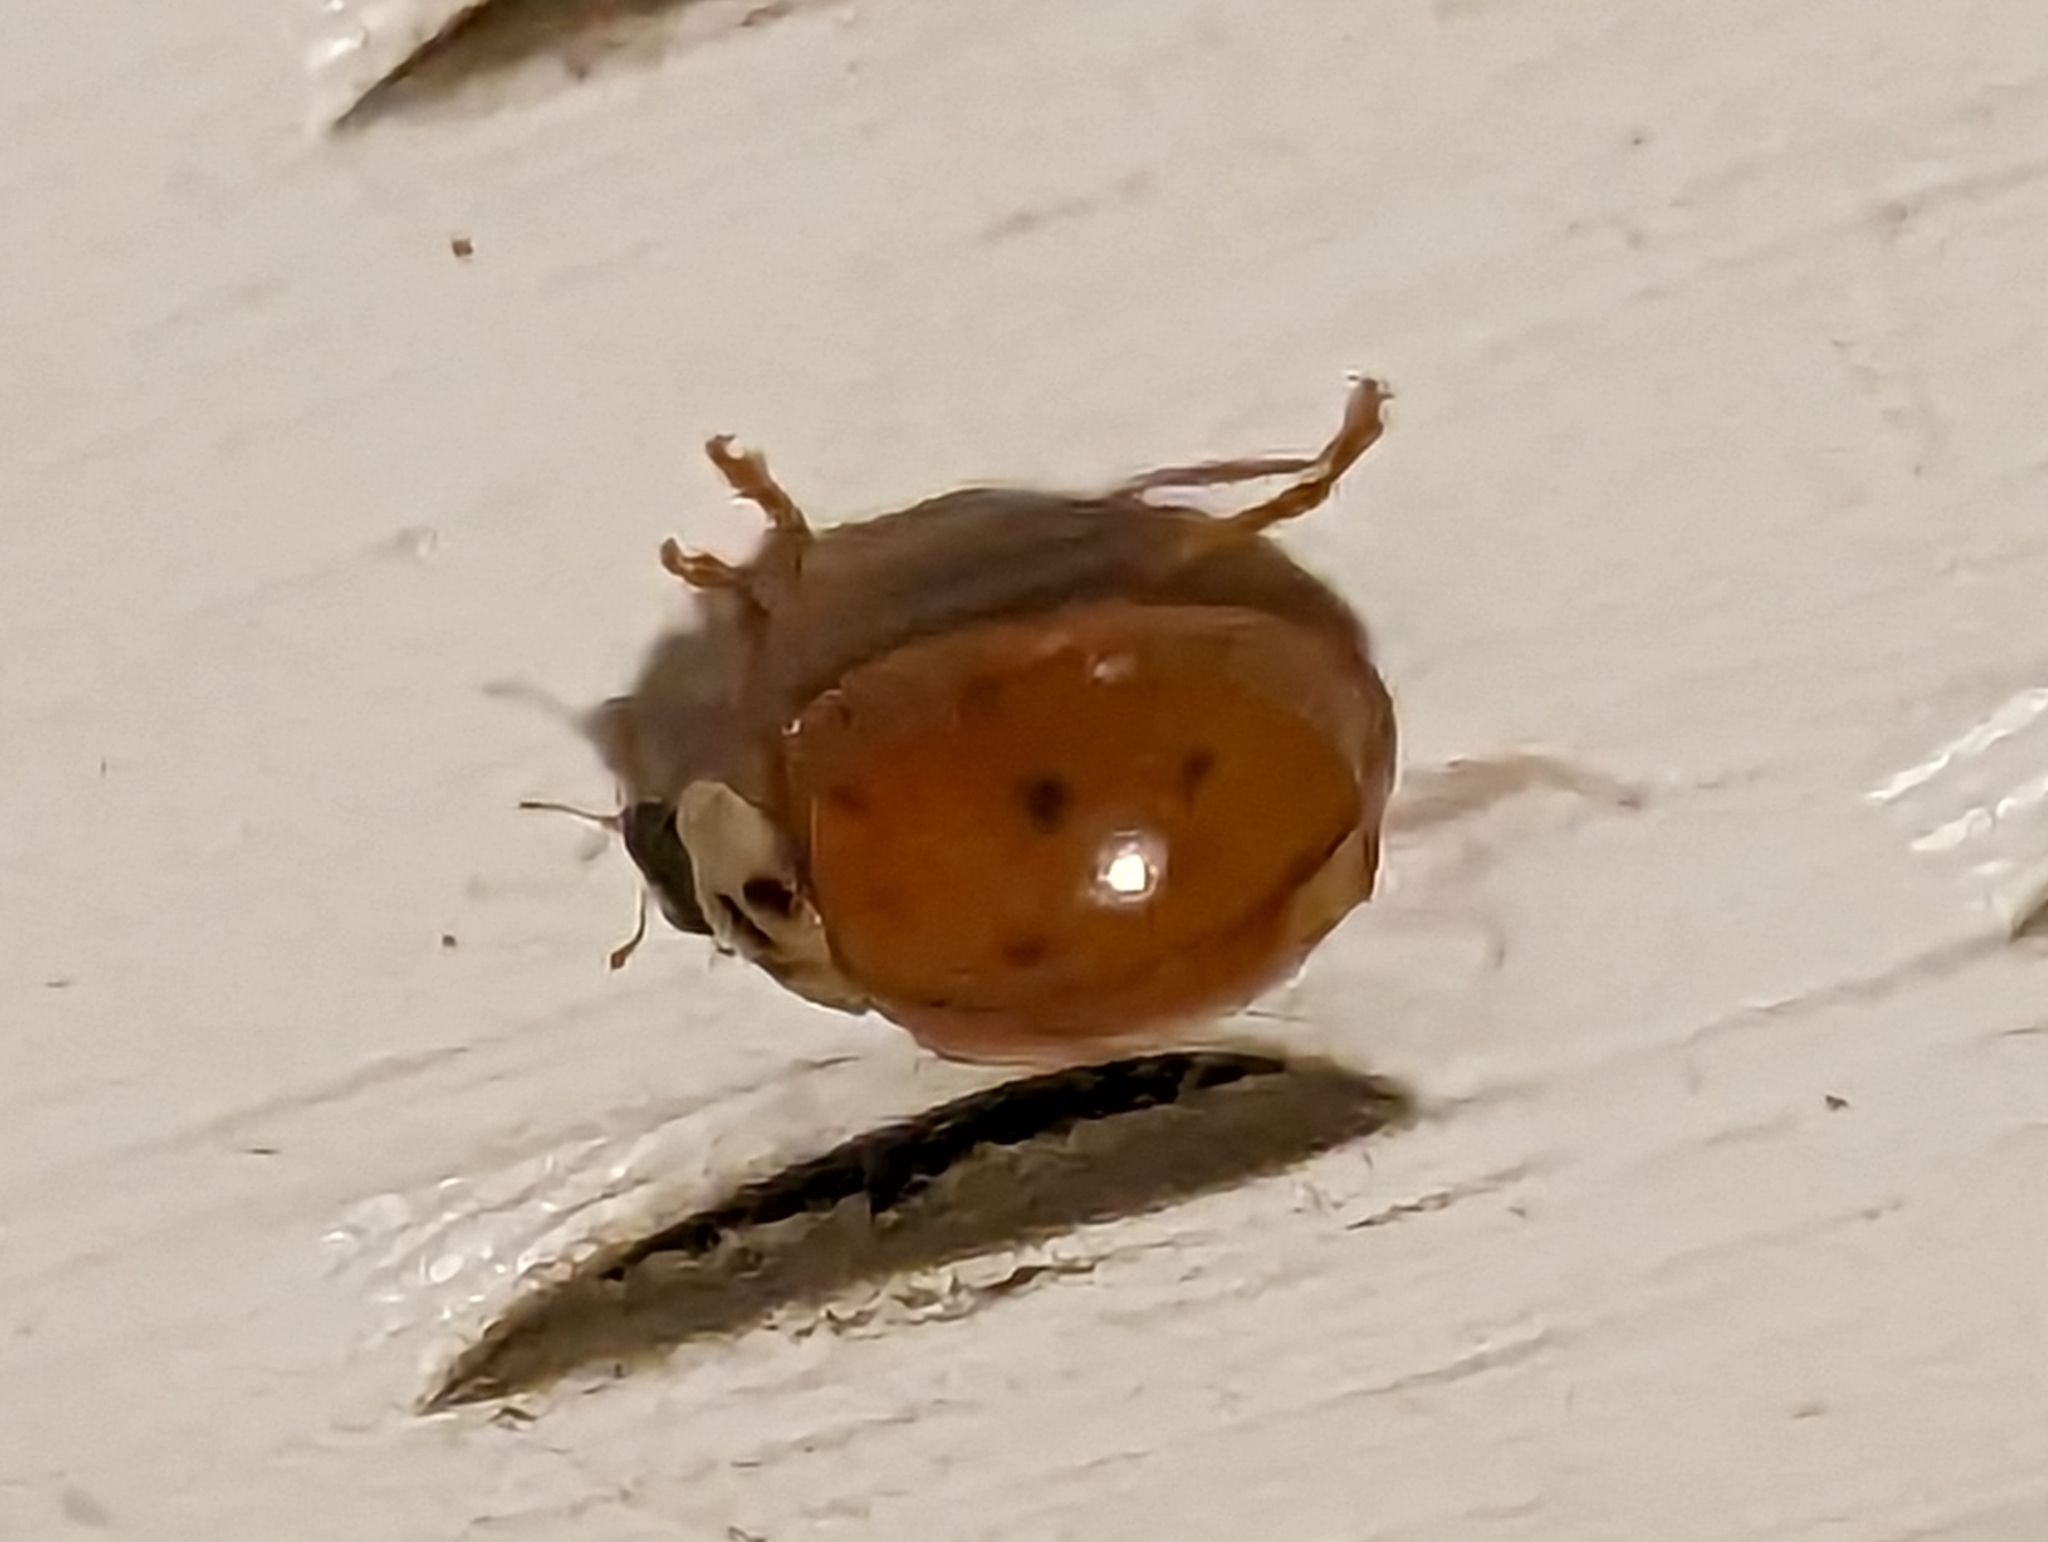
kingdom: Animalia
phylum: Arthropoda
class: Insecta
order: Coleoptera
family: Coccinellidae
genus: Harmonia
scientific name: Harmonia axyridis
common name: Harlequin ladybird
